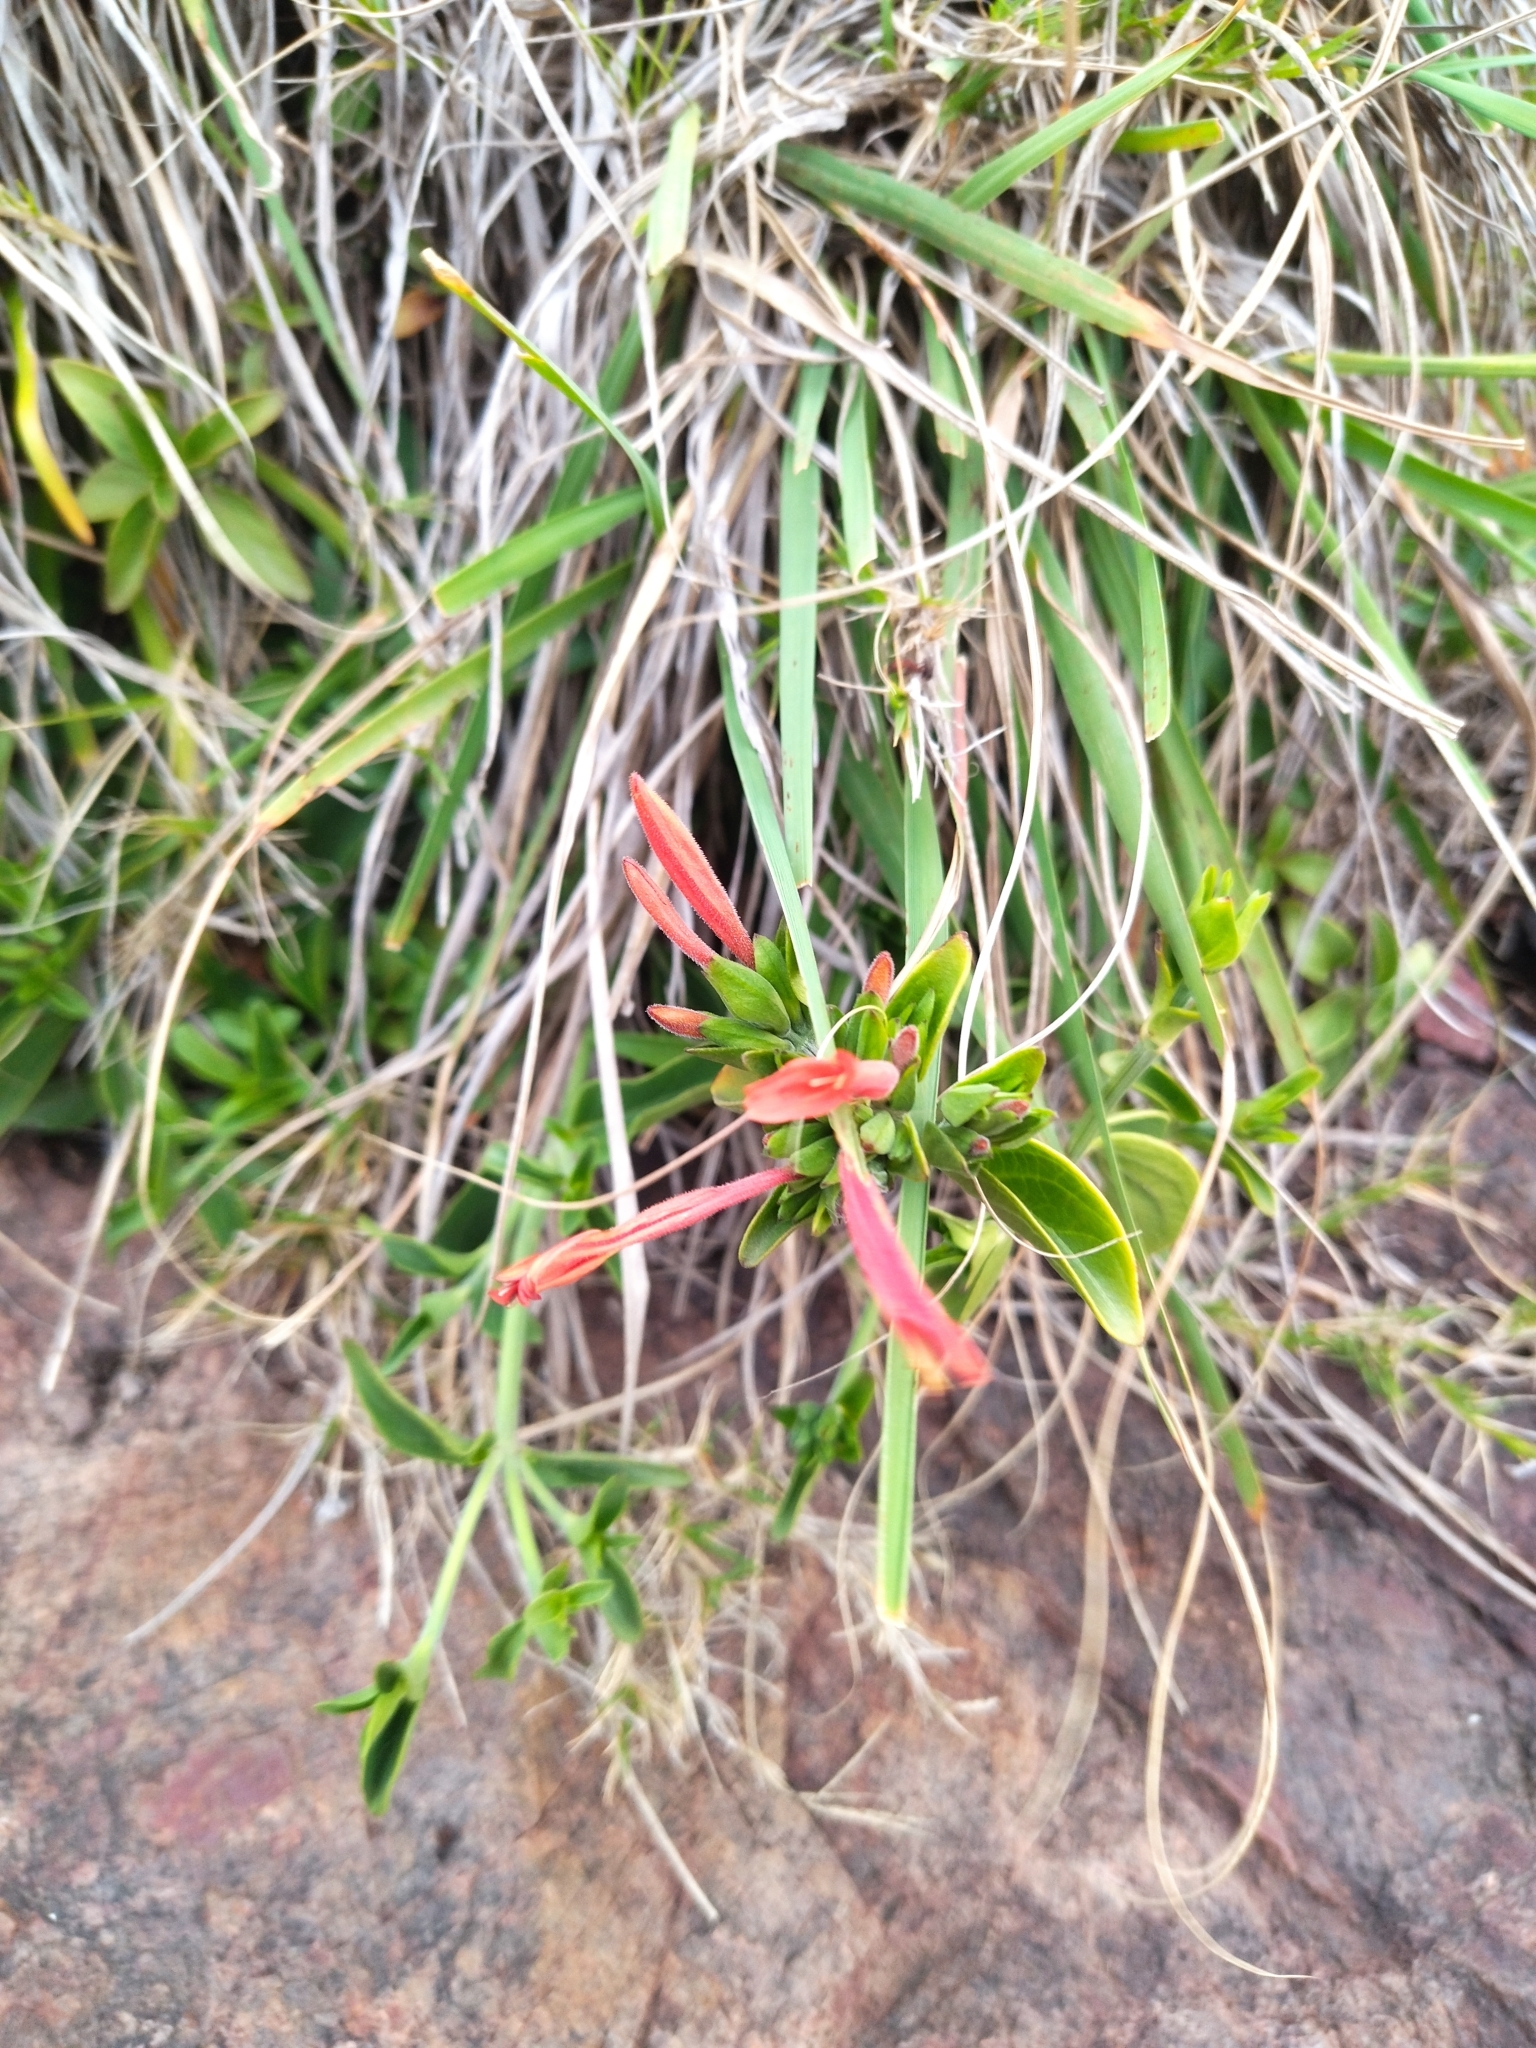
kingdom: Plantae
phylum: Tracheophyta
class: Magnoliopsida
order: Lamiales
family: Acanthaceae
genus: Dicliptera
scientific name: Dicliptera squarrosa
